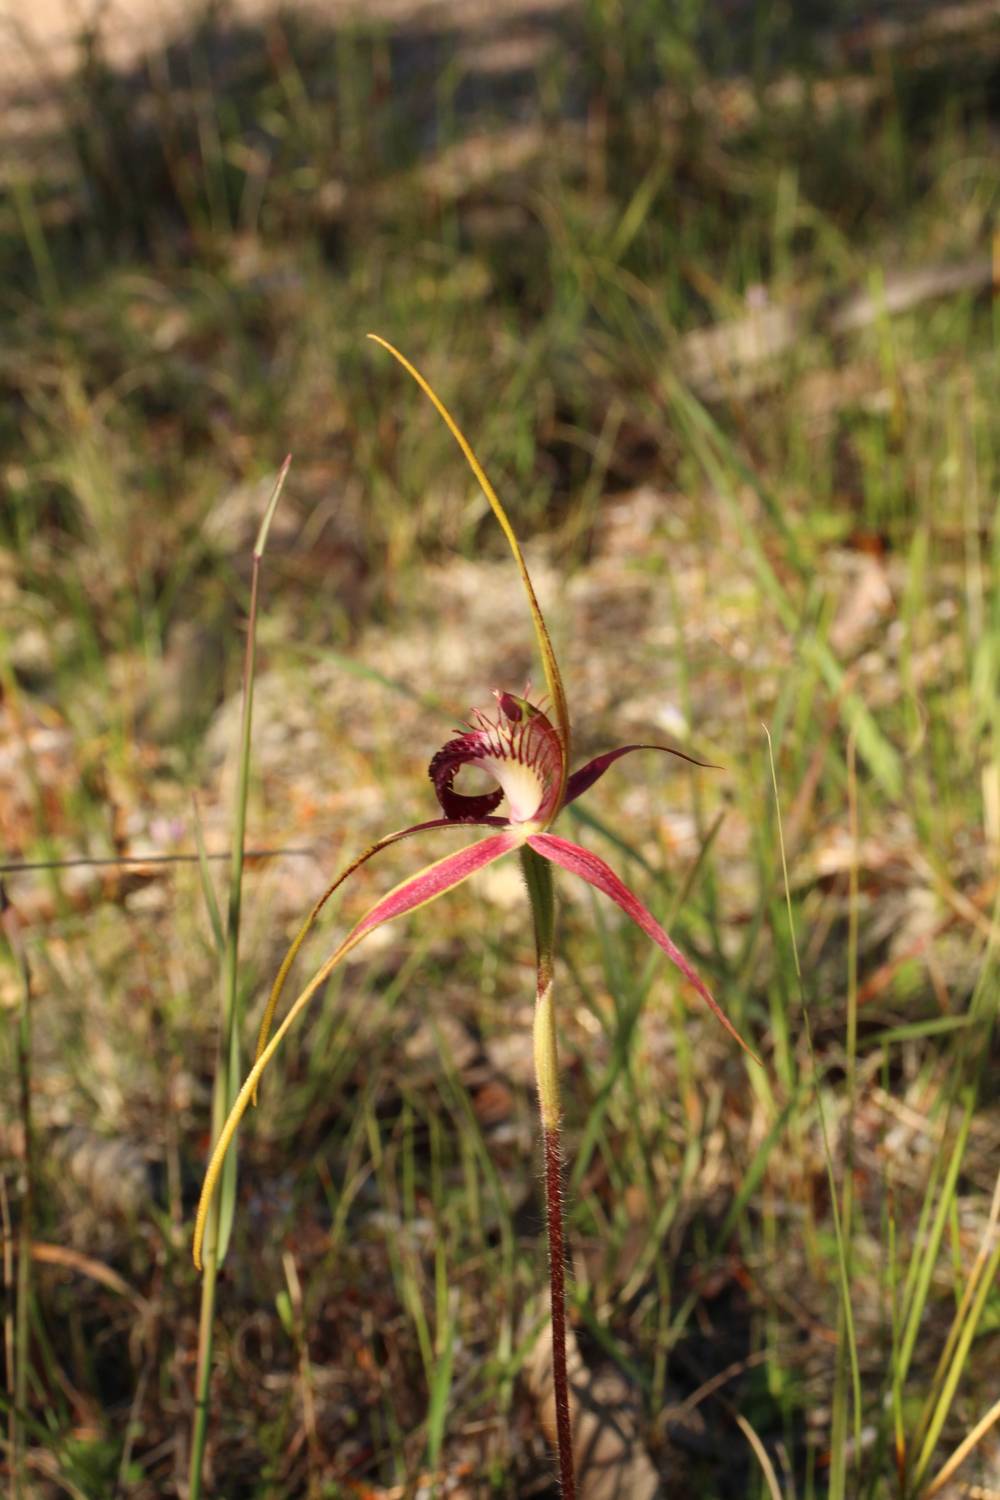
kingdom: Plantae
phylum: Tracheophyta
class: Liliopsida
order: Asparagales
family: Orchidaceae
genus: Caladenia
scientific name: Caladenia decora
